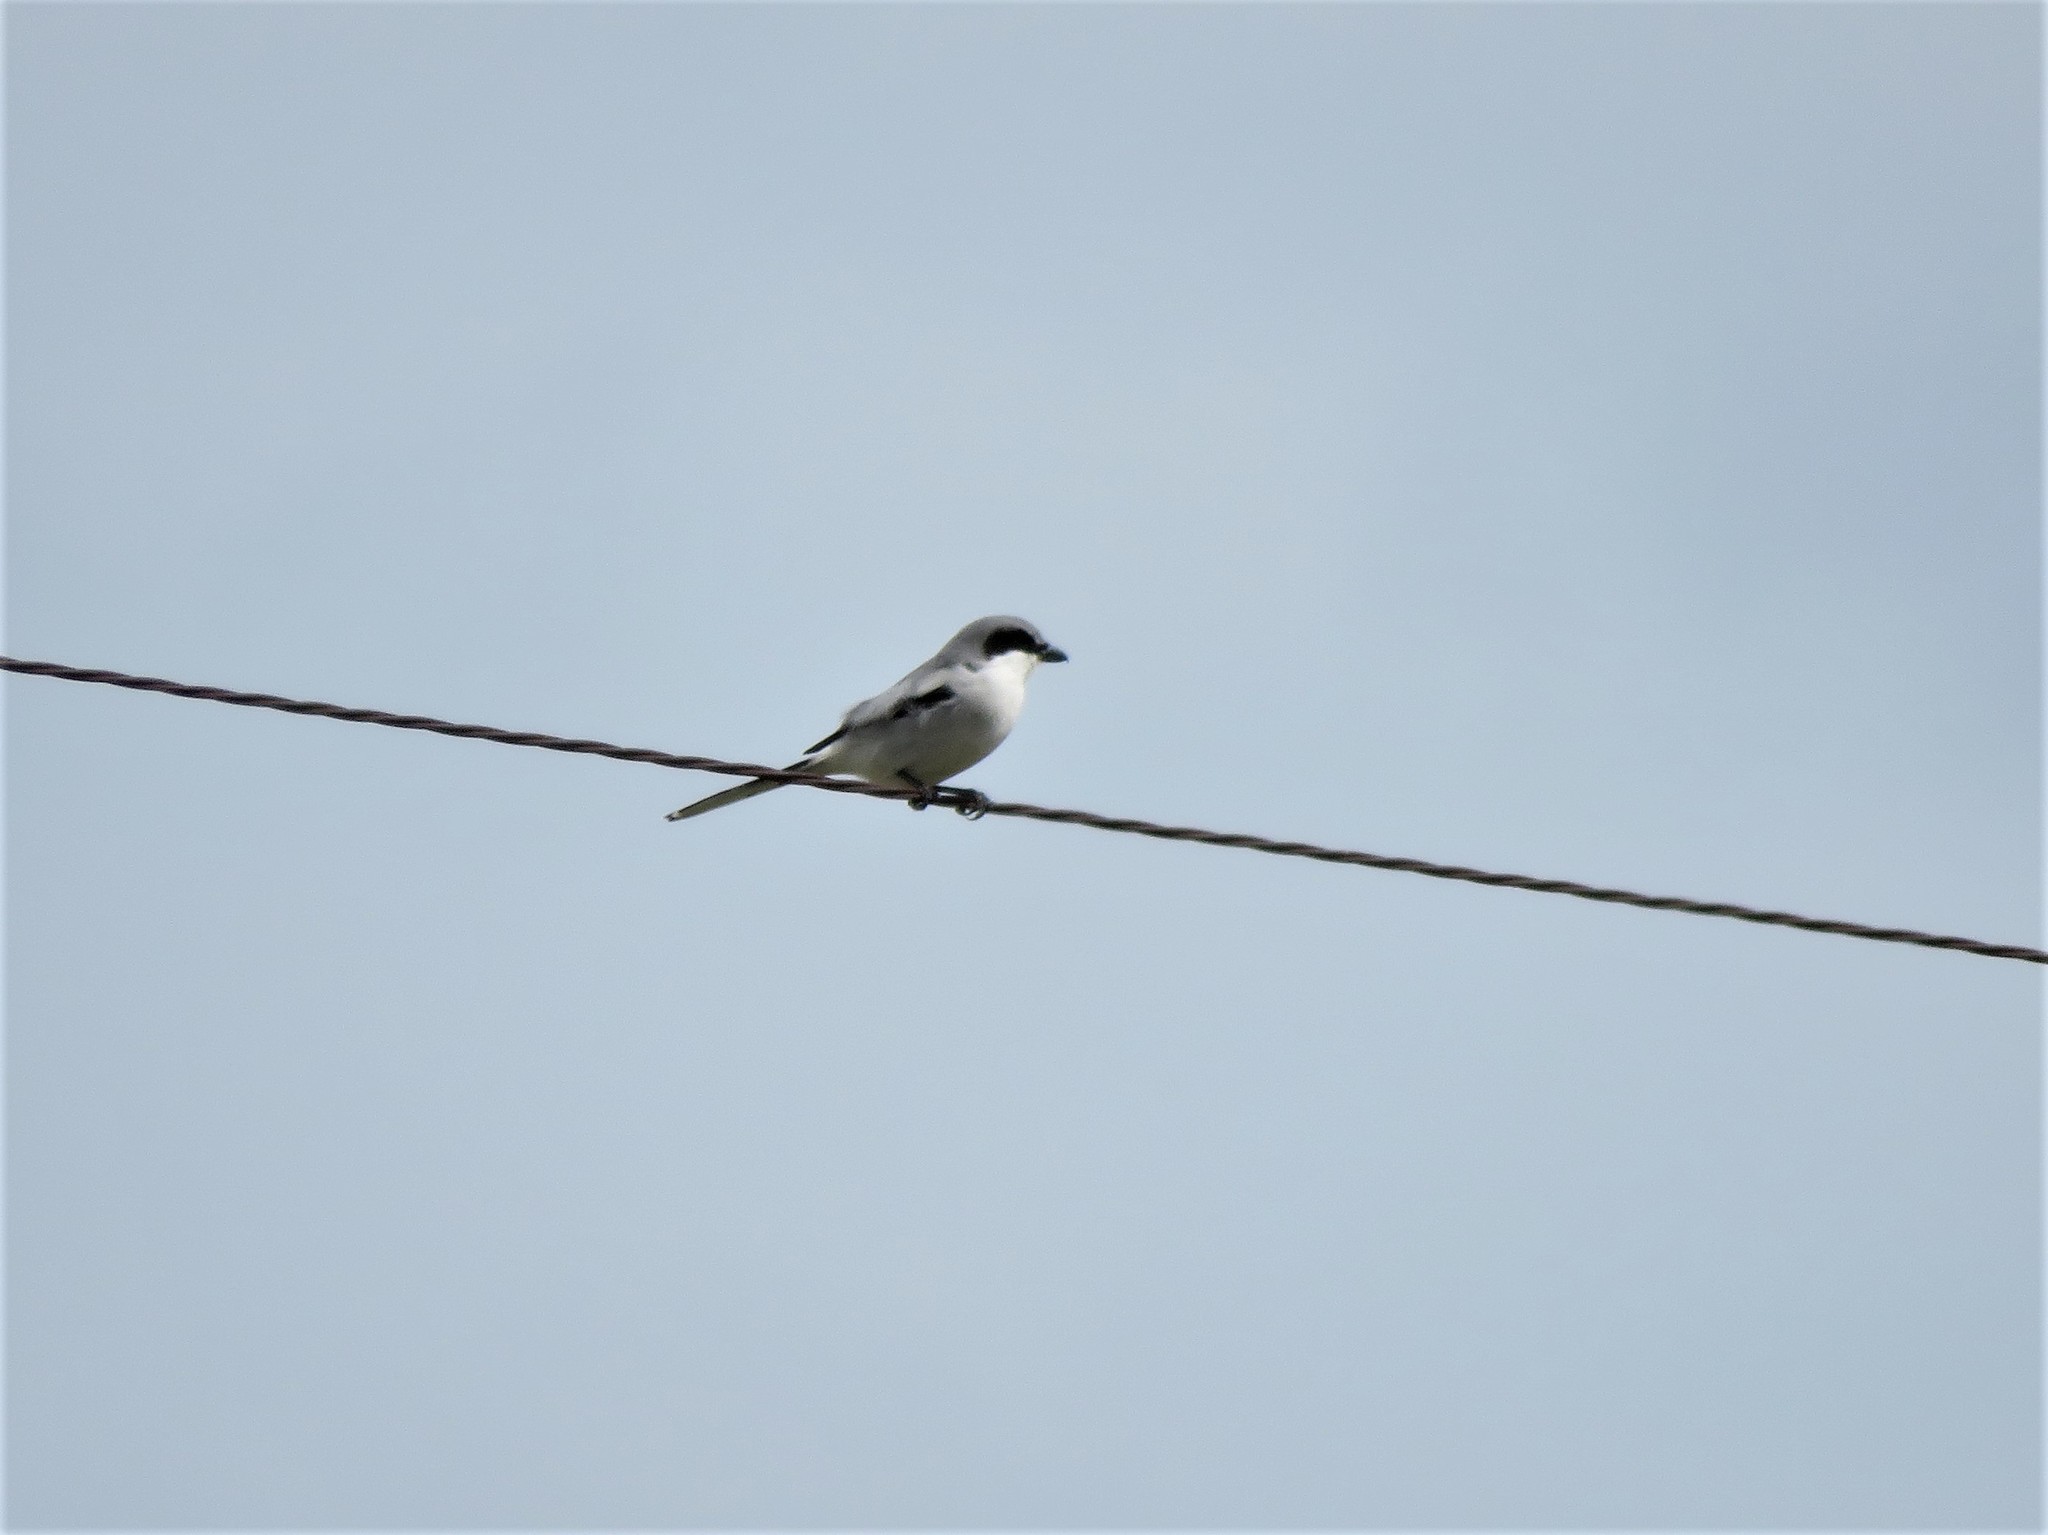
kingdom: Animalia
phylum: Chordata
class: Aves
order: Passeriformes
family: Laniidae
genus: Lanius
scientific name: Lanius ludovicianus
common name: Loggerhead shrike
